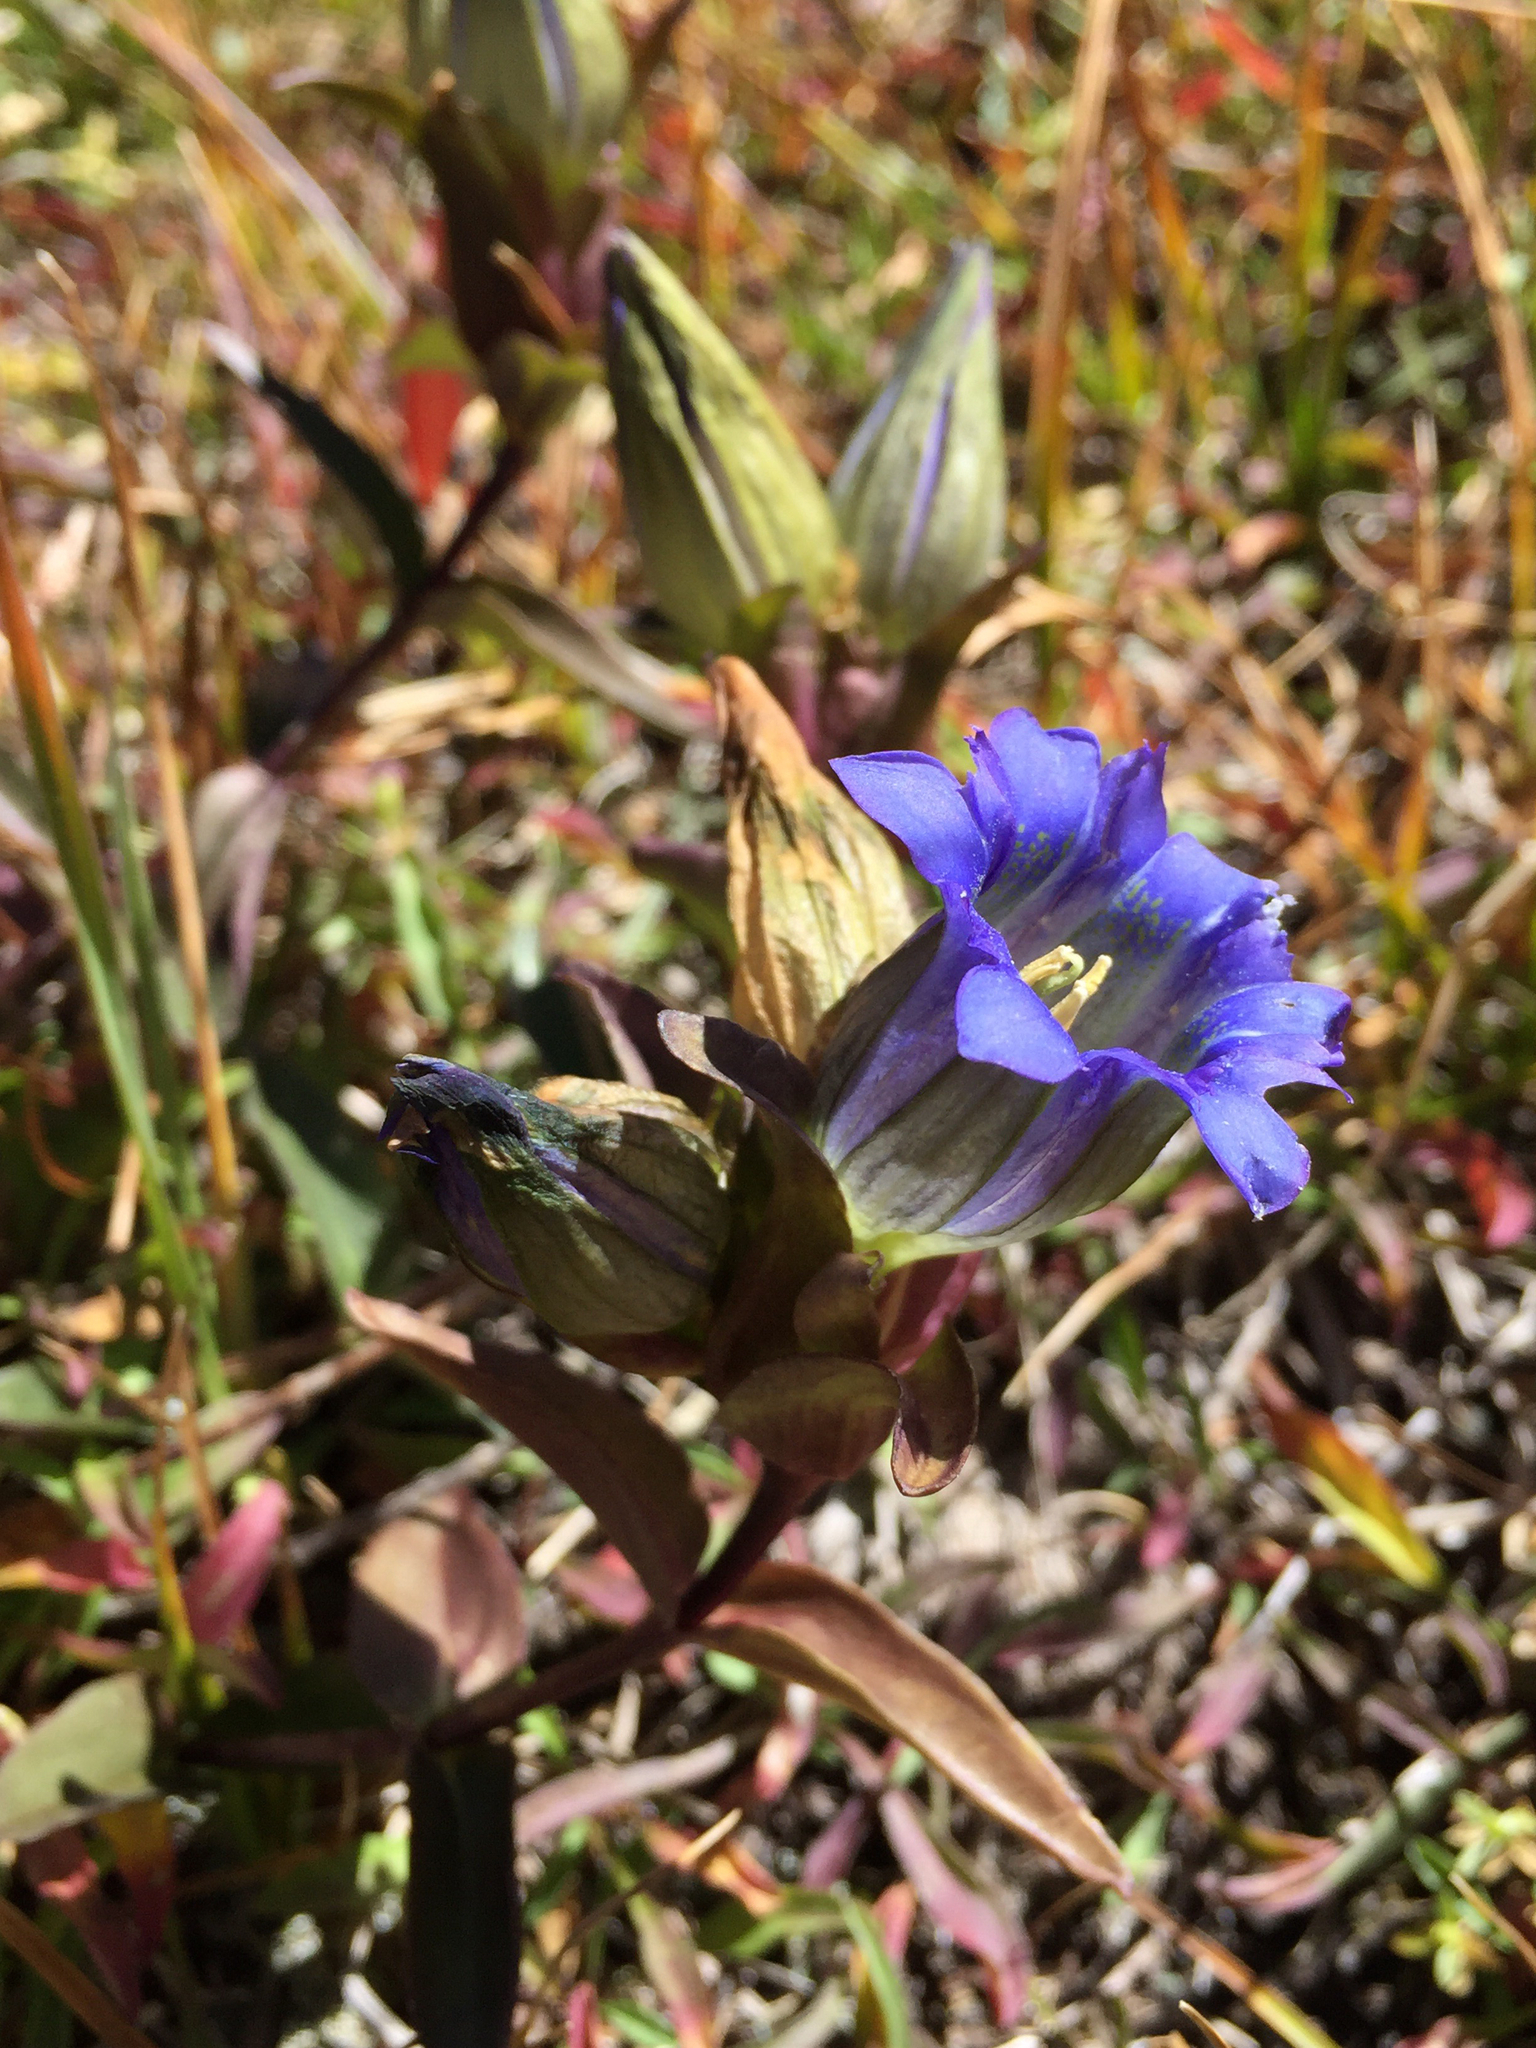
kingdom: Plantae
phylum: Tracheophyta
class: Magnoliopsida
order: Gentianales
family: Gentianaceae
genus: Gentiana
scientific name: Gentiana parryi
